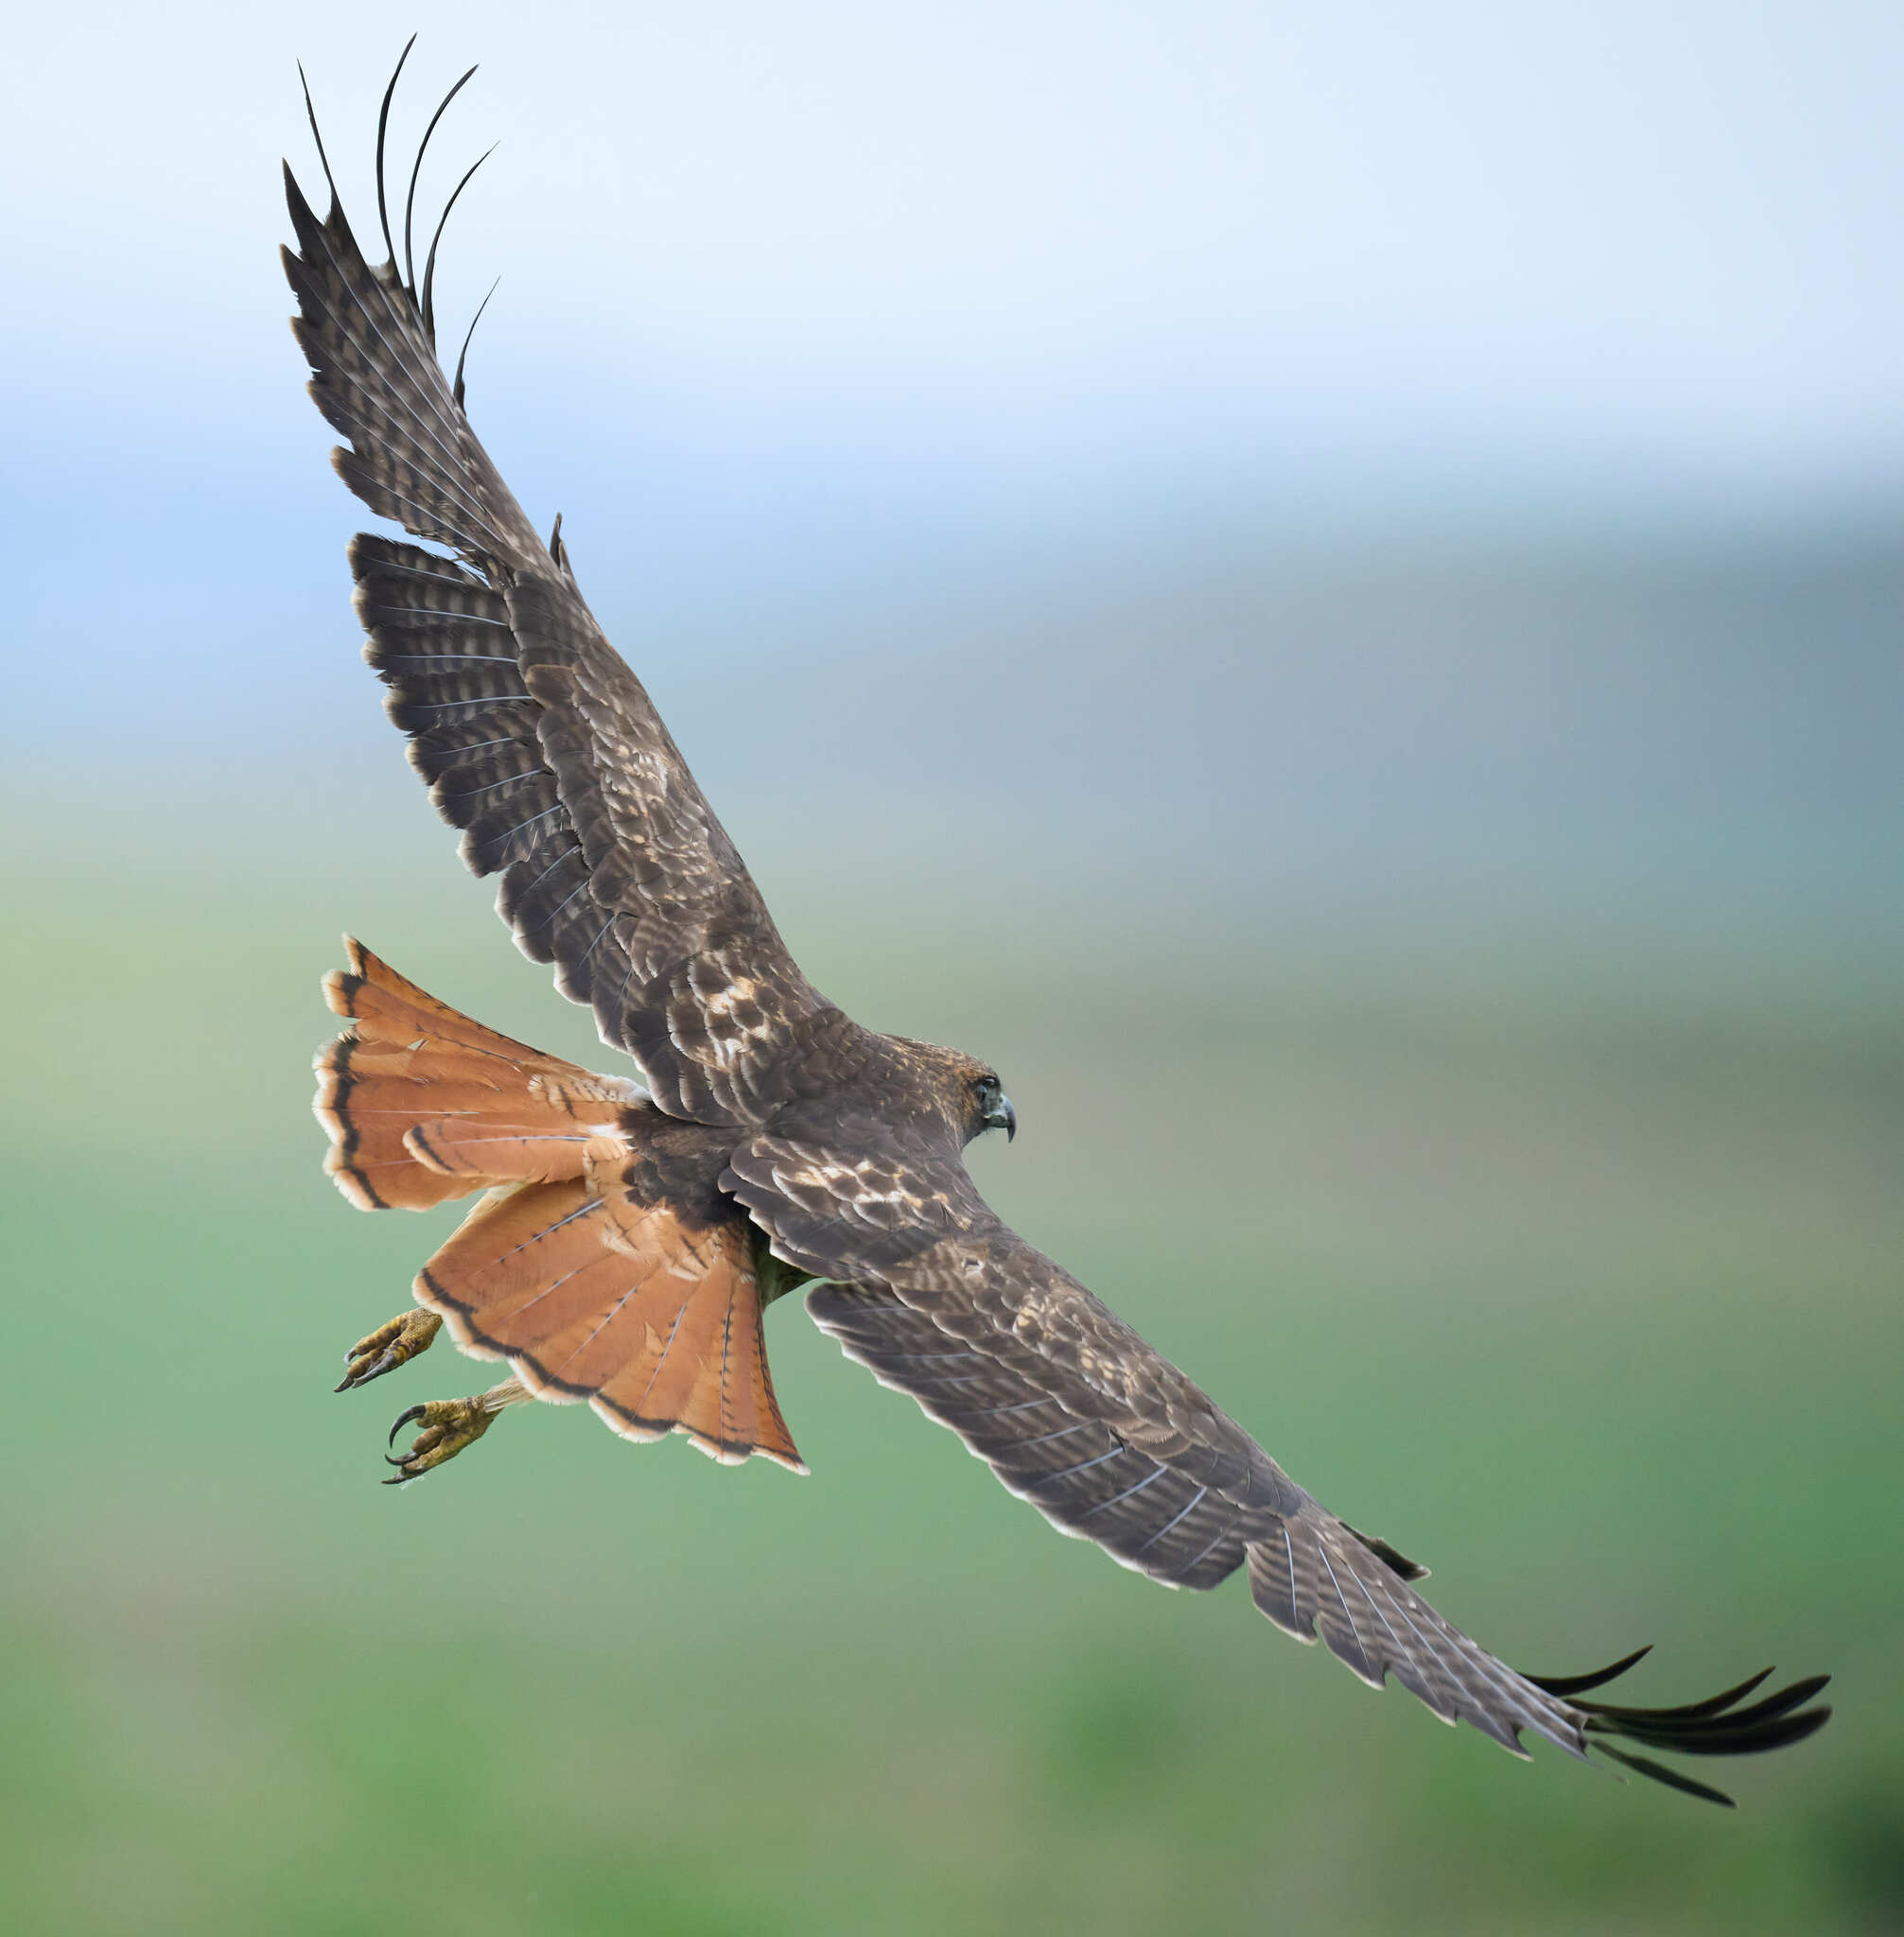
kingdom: Animalia
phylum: Chordata
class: Aves
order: Accipitriformes
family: Accipitridae
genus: Buteo
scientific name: Buteo jamaicensis
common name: Red-tailed hawk
